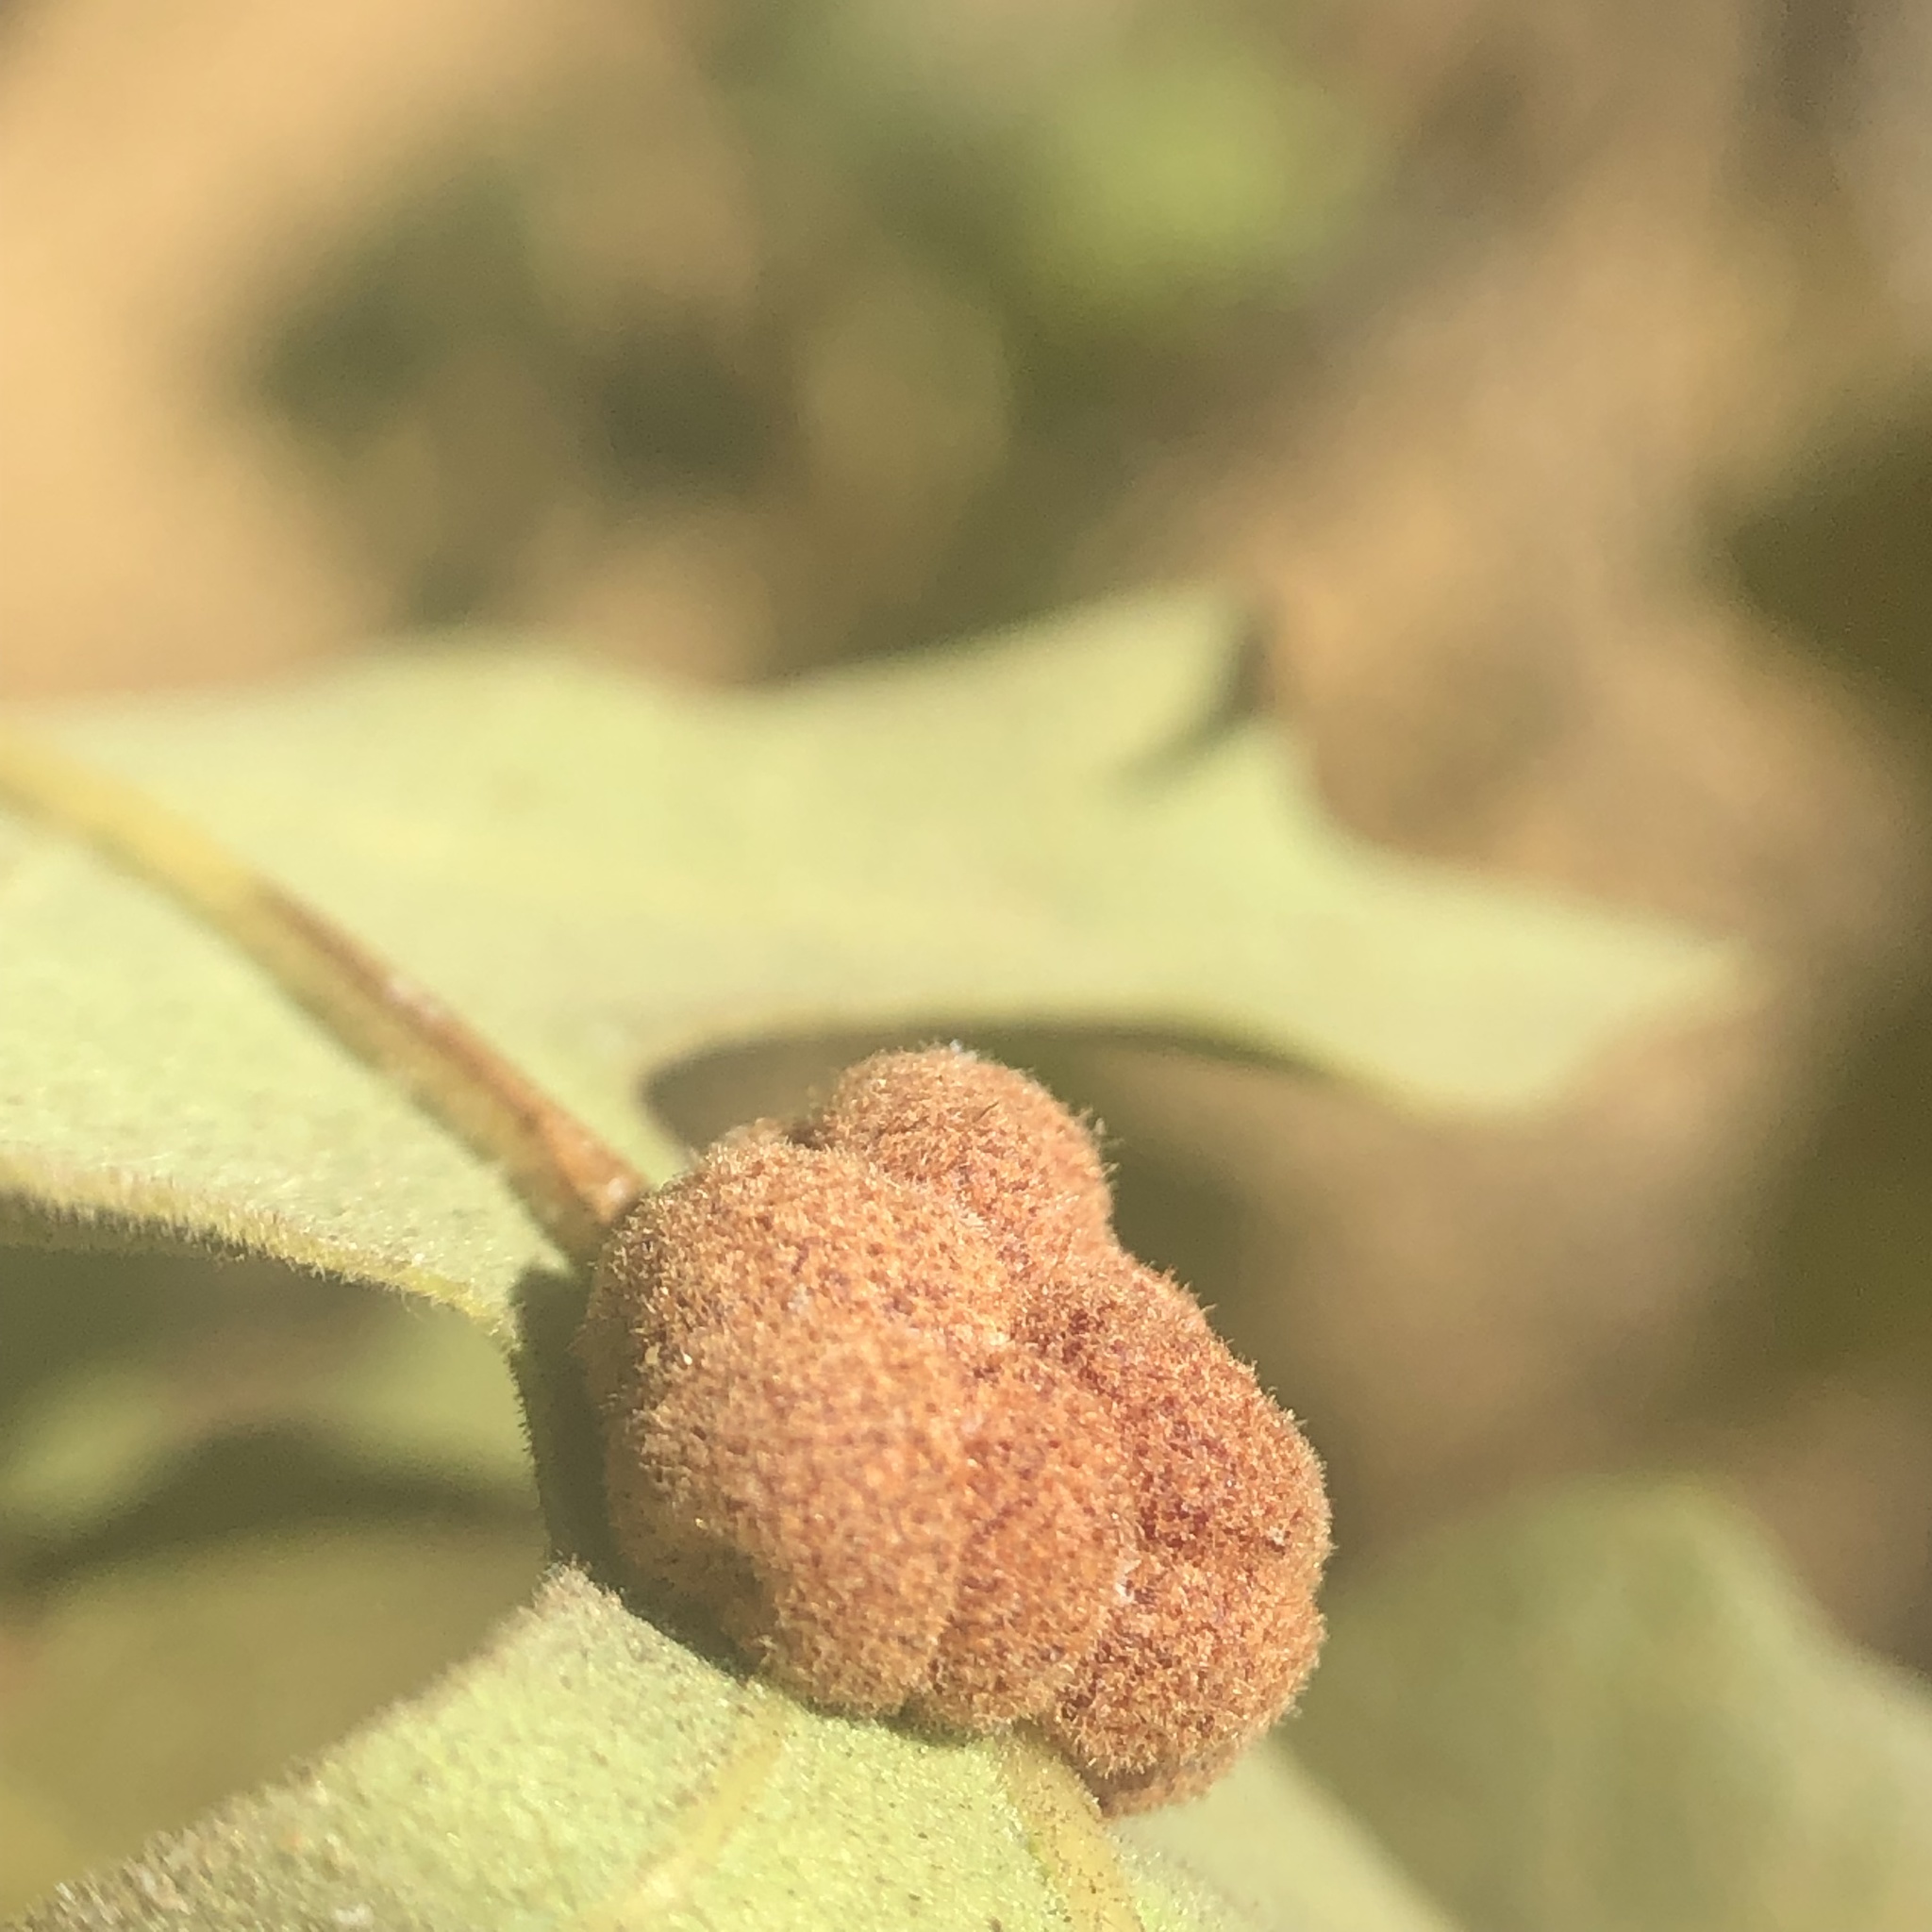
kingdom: Animalia
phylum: Arthropoda
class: Insecta
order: Hymenoptera
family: Cynipidae
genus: Andricus
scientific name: Andricus
